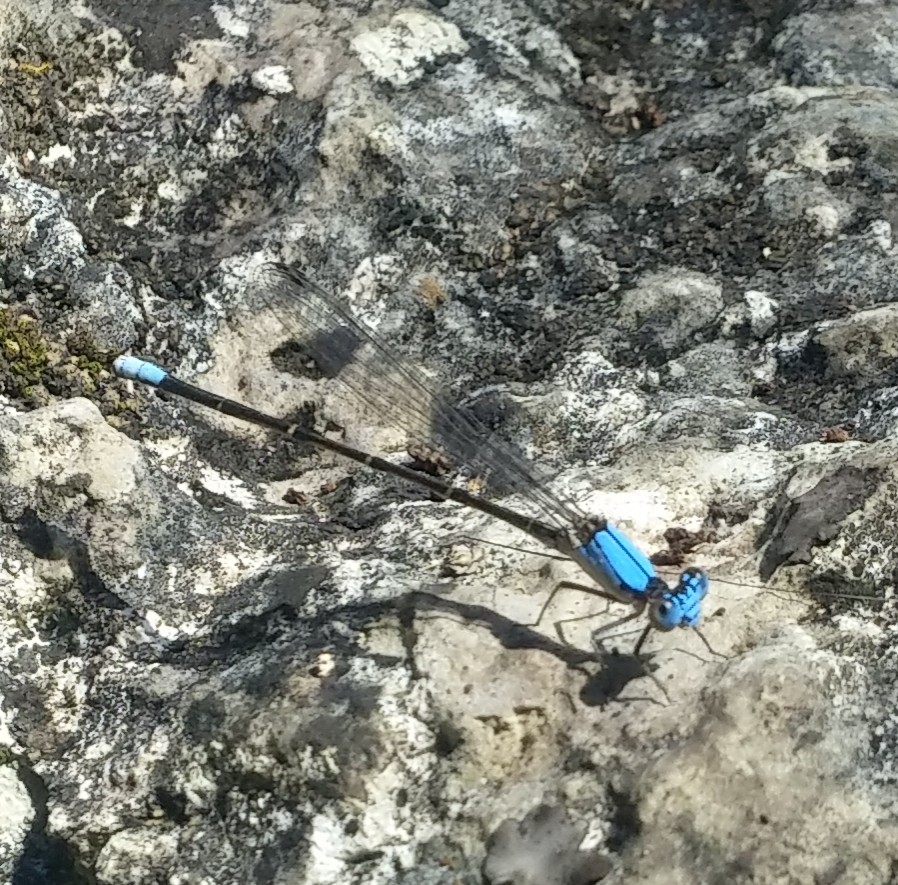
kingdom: Animalia
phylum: Arthropoda
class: Insecta
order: Odonata
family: Coenagrionidae
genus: Argia
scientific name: Argia apicalis
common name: Blue-fronted dancer
